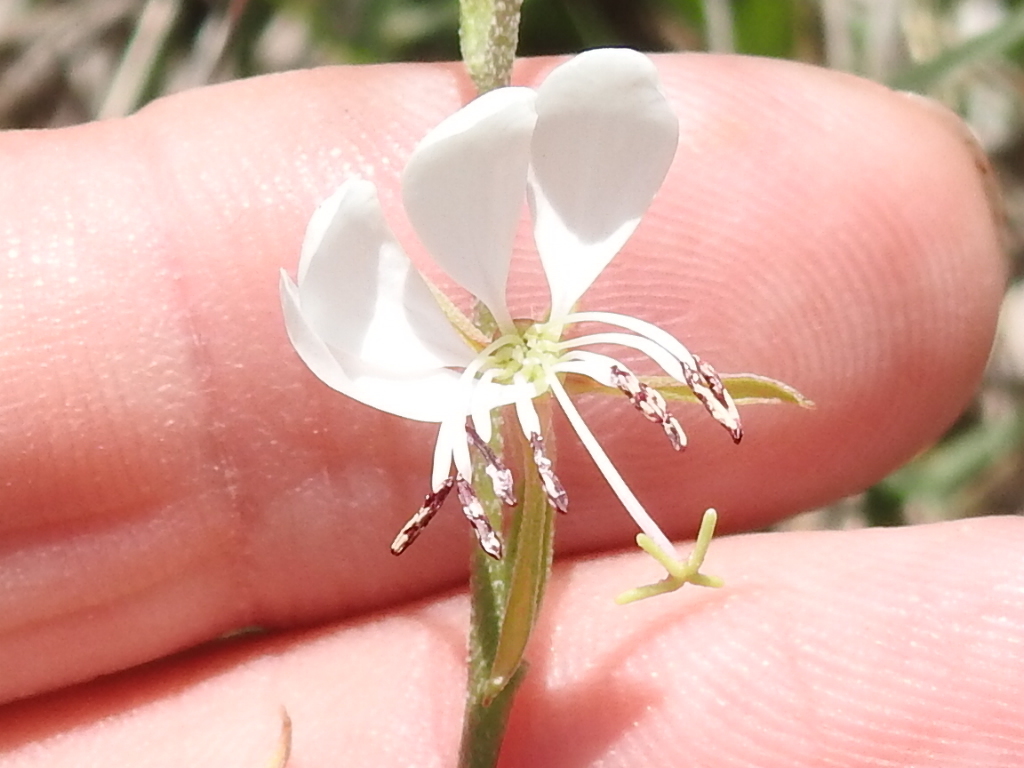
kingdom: Plantae
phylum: Tracheophyta
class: Magnoliopsida
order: Myrtales
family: Onagraceae
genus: Oenothera
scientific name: Oenothera suffulta
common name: Kisses
